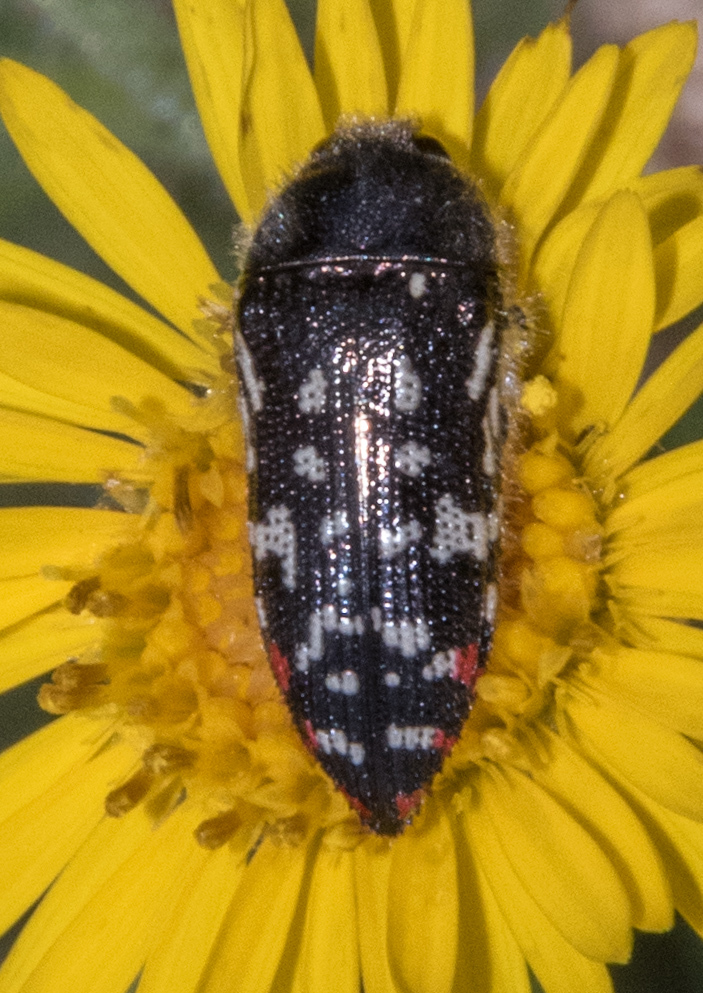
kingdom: Animalia
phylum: Arthropoda
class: Insecta
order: Coleoptera
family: Buprestidae
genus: Acmaeodera
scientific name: Acmaeodera rubronotata
